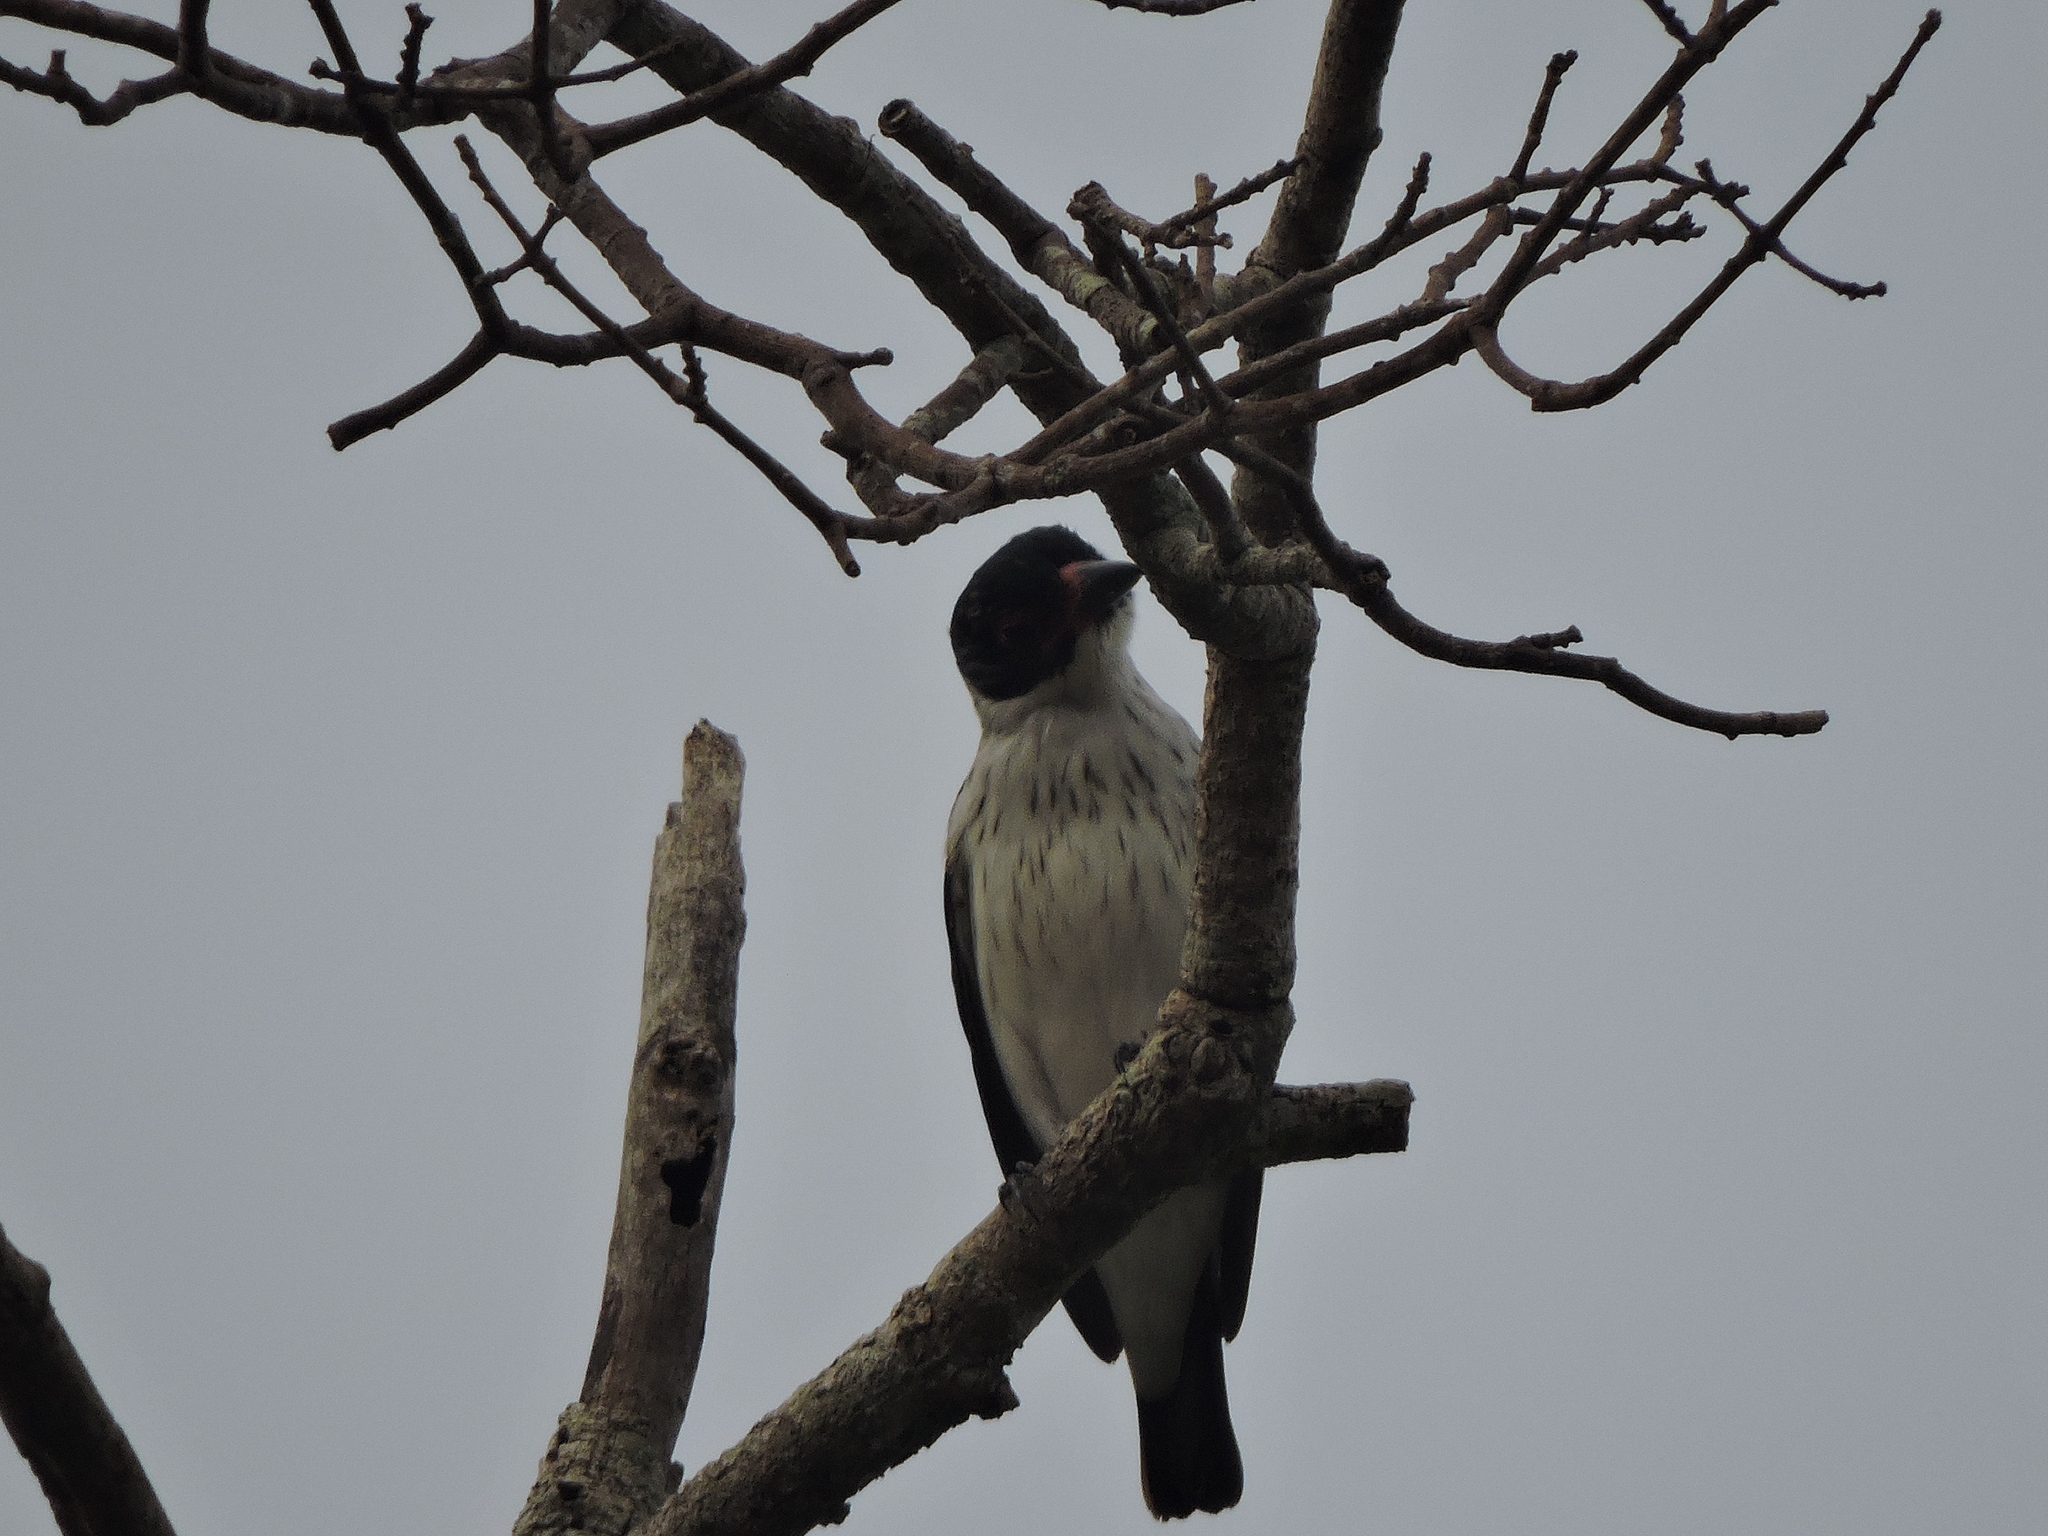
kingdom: Animalia
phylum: Chordata
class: Aves
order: Passeriformes
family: Cotingidae
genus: Tityra
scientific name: Tityra cayana
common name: Black-tailed tityra
